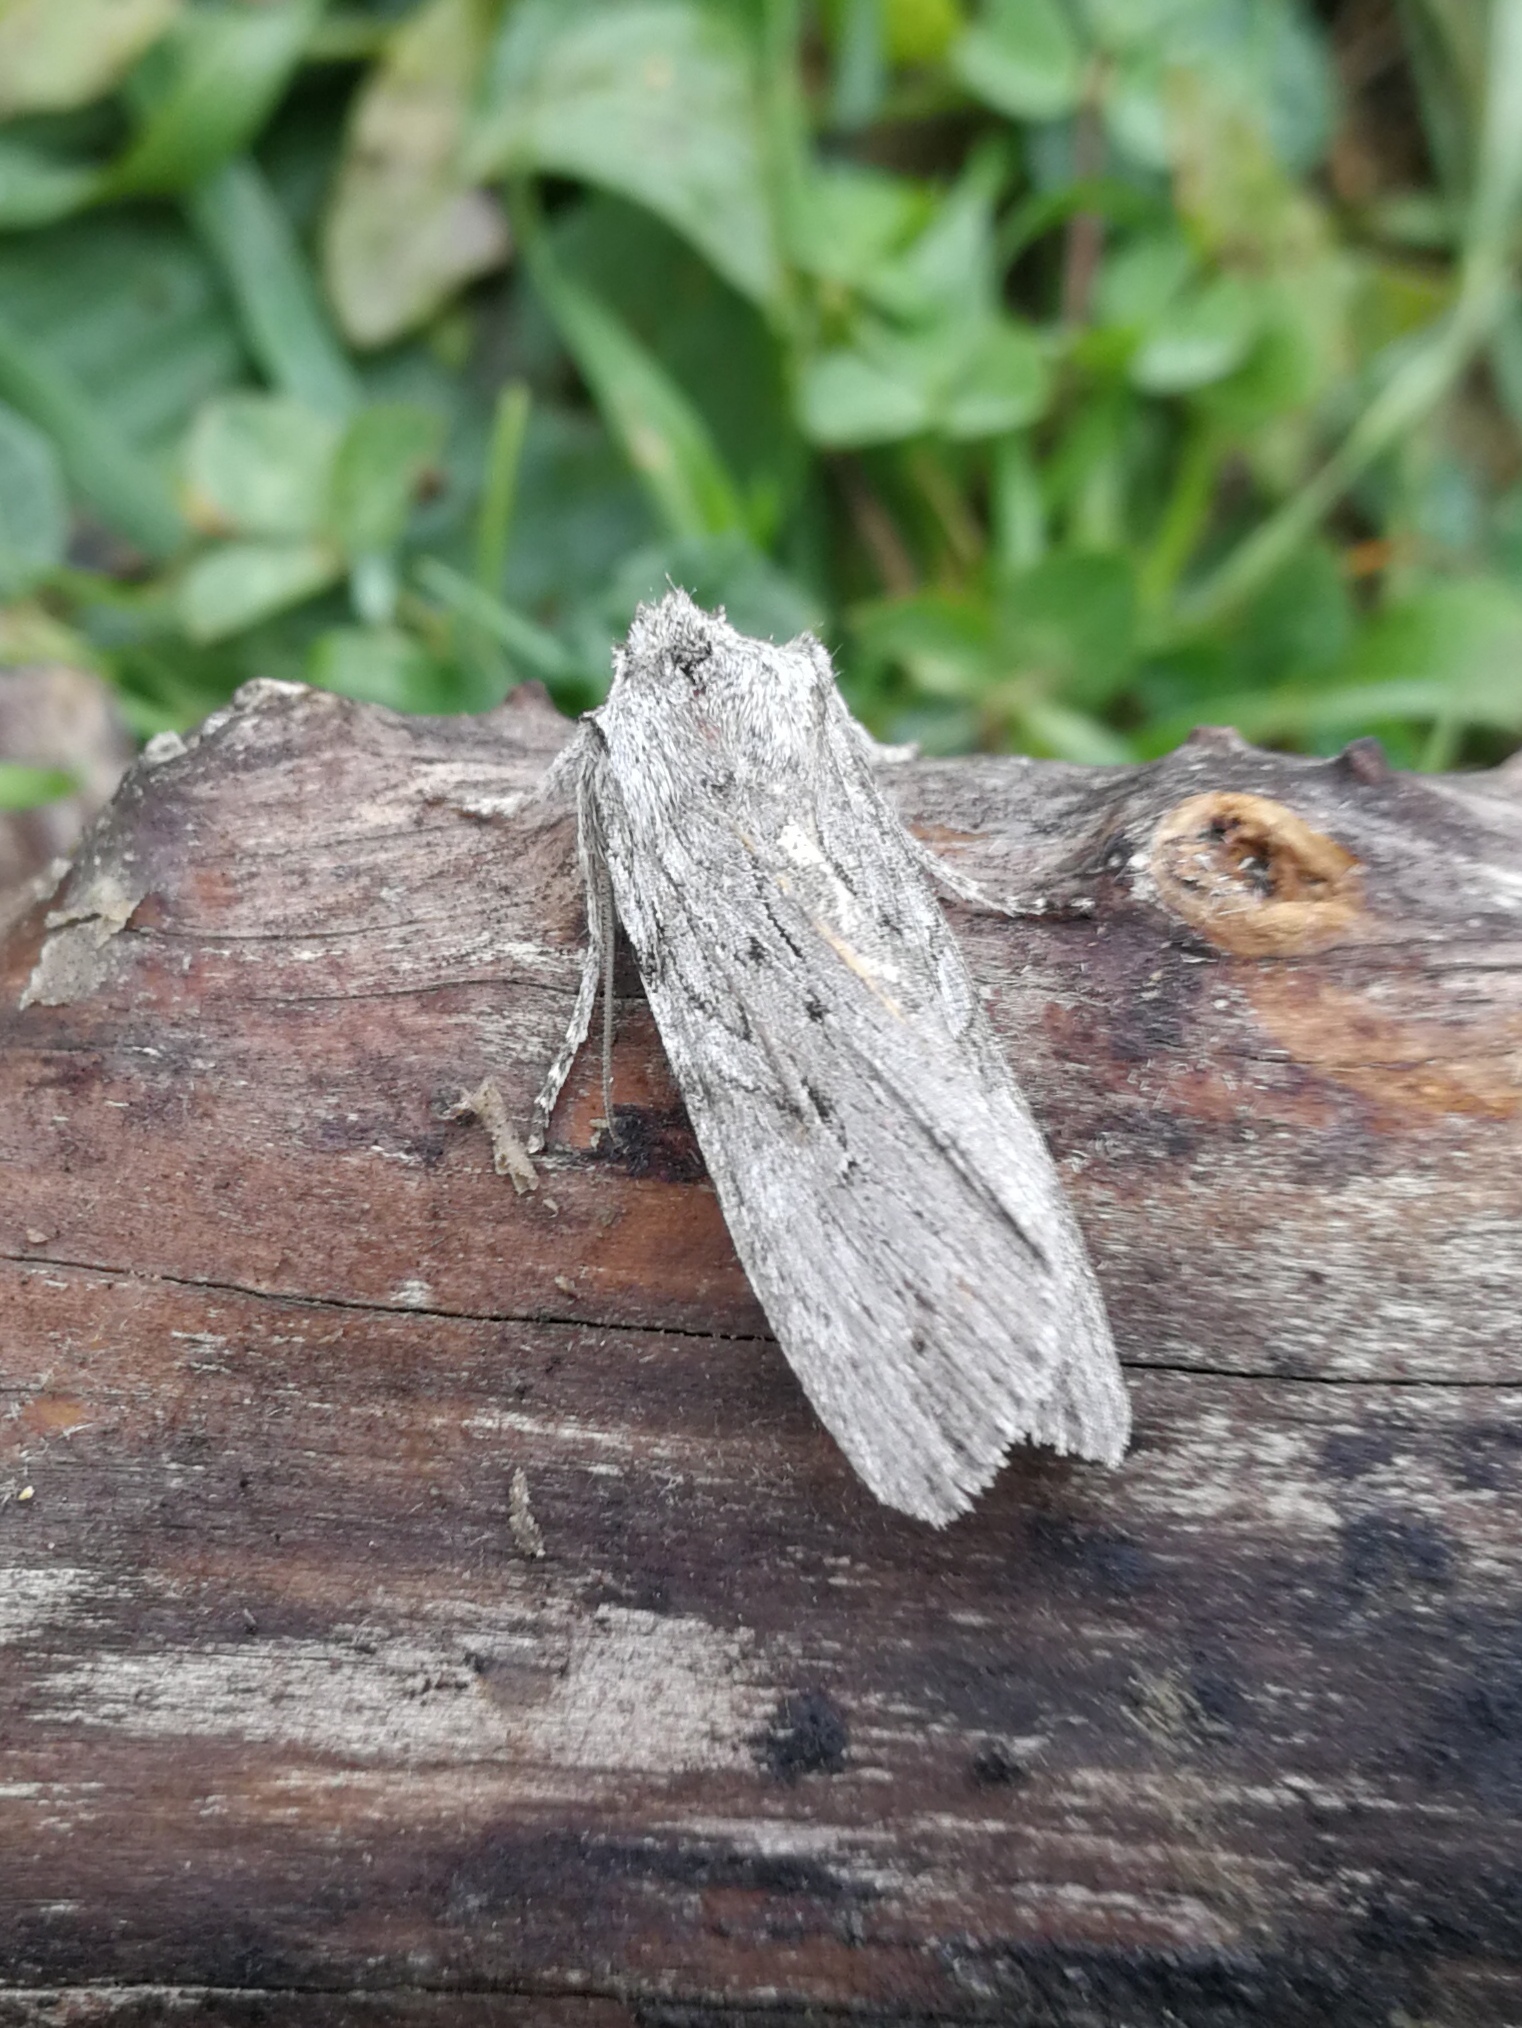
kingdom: Animalia
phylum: Arthropoda
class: Insecta
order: Lepidoptera
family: Noctuidae
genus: Lithophane
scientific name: Lithophane leautieri
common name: Blair's shoulder-knot
